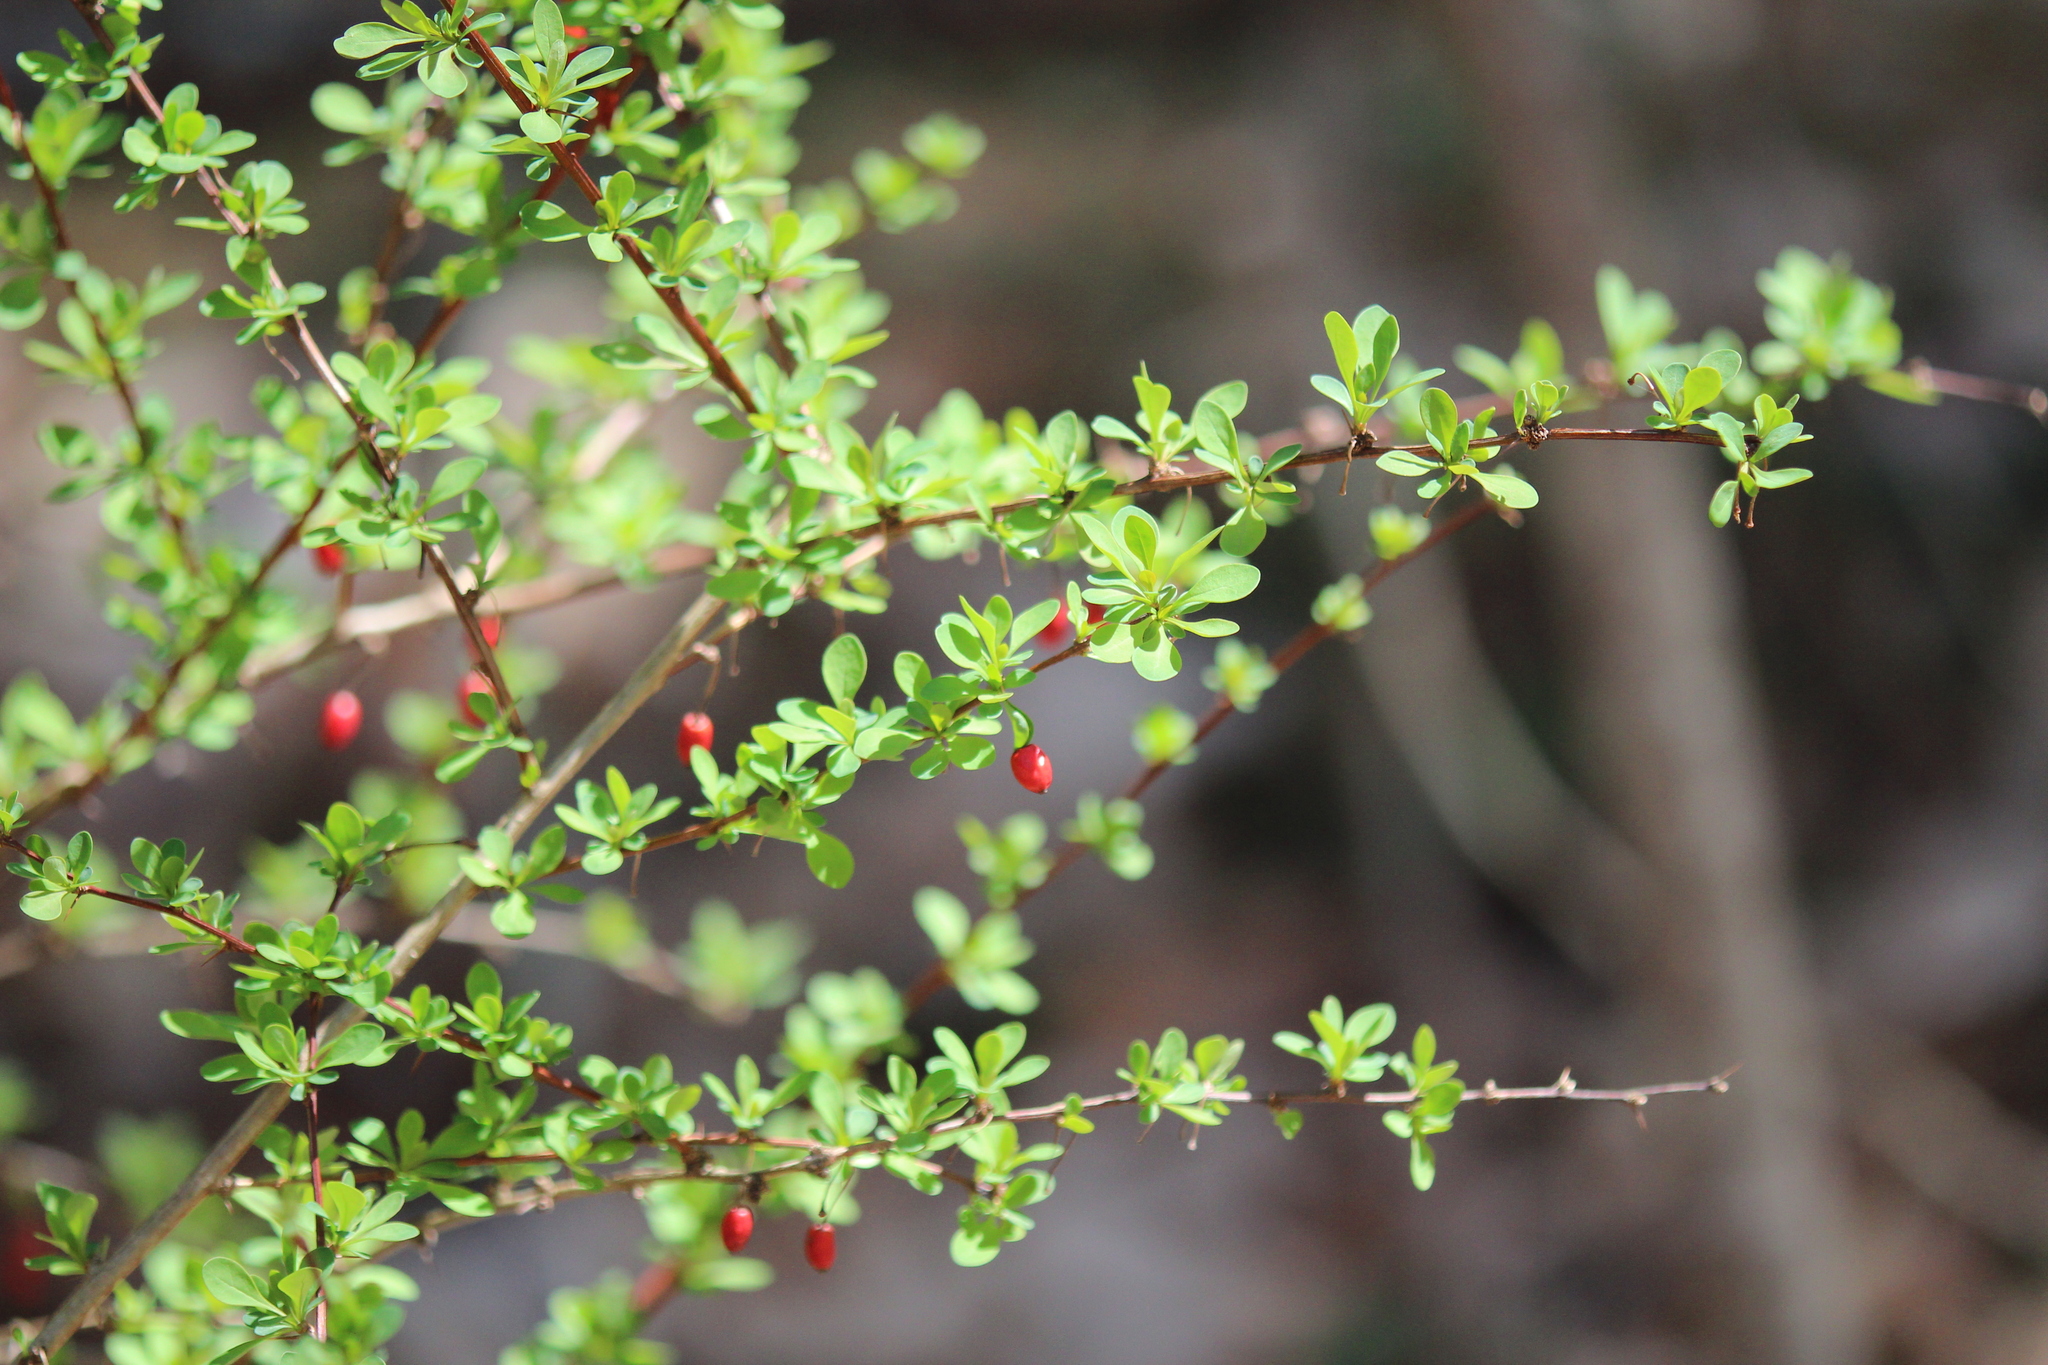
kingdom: Plantae
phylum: Tracheophyta
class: Magnoliopsida
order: Ranunculales
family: Berberidaceae
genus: Berberis
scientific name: Berberis thunbergii
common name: Japanese barberry
